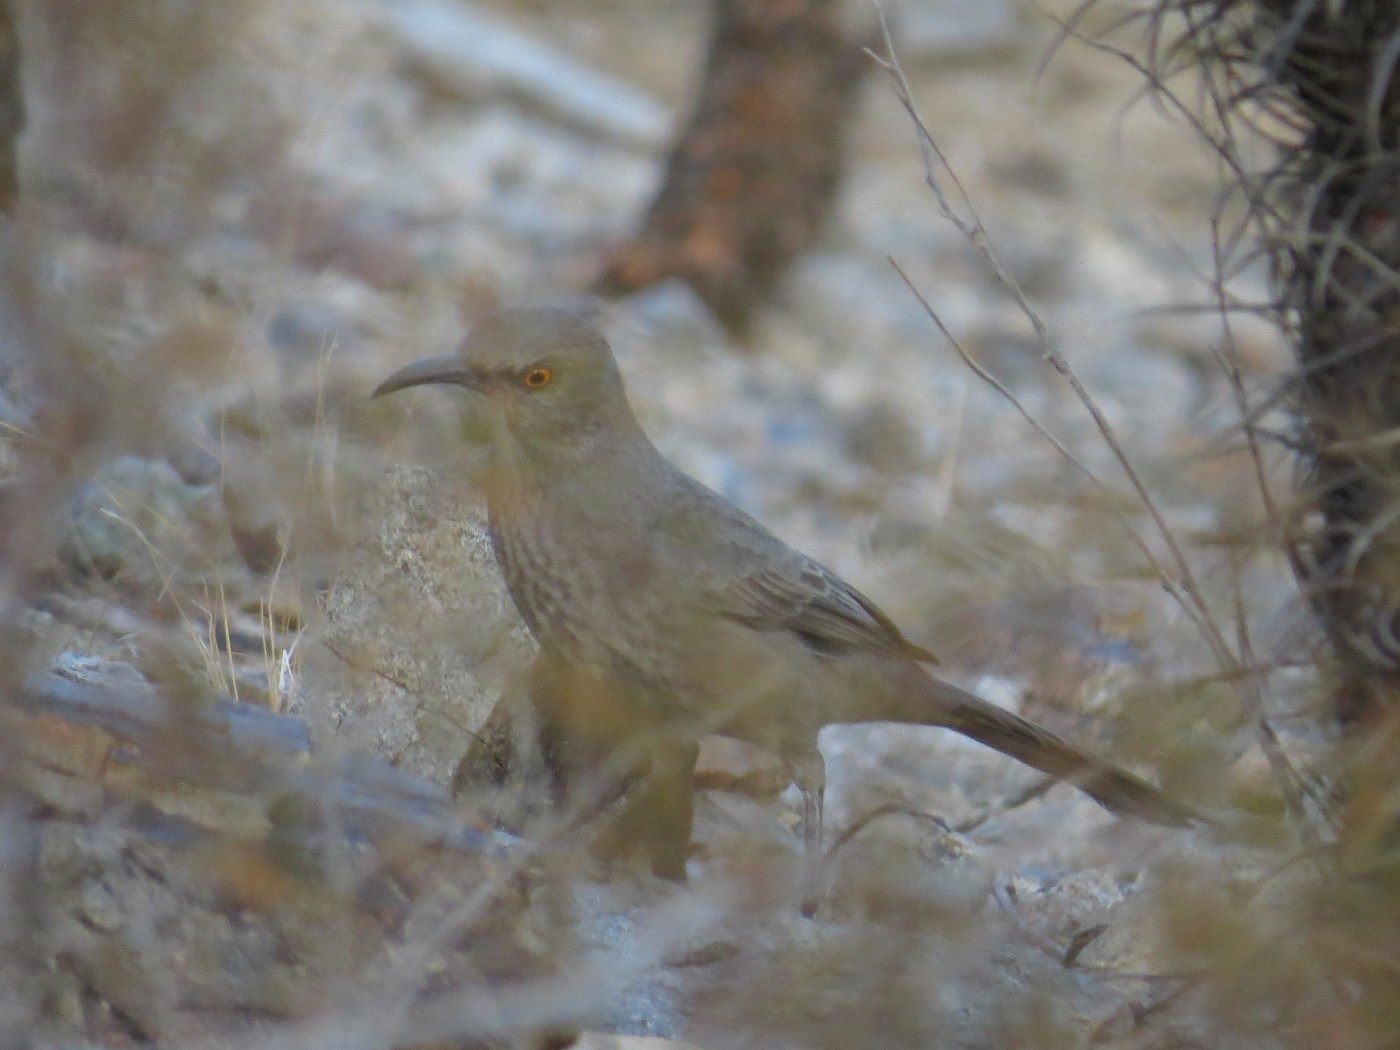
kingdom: Animalia
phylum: Chordata
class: Aves
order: Passeriformes
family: Mimidae
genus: Toxostoma
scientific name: Toxostoma curvirostre
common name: Curve-billed thrasher
